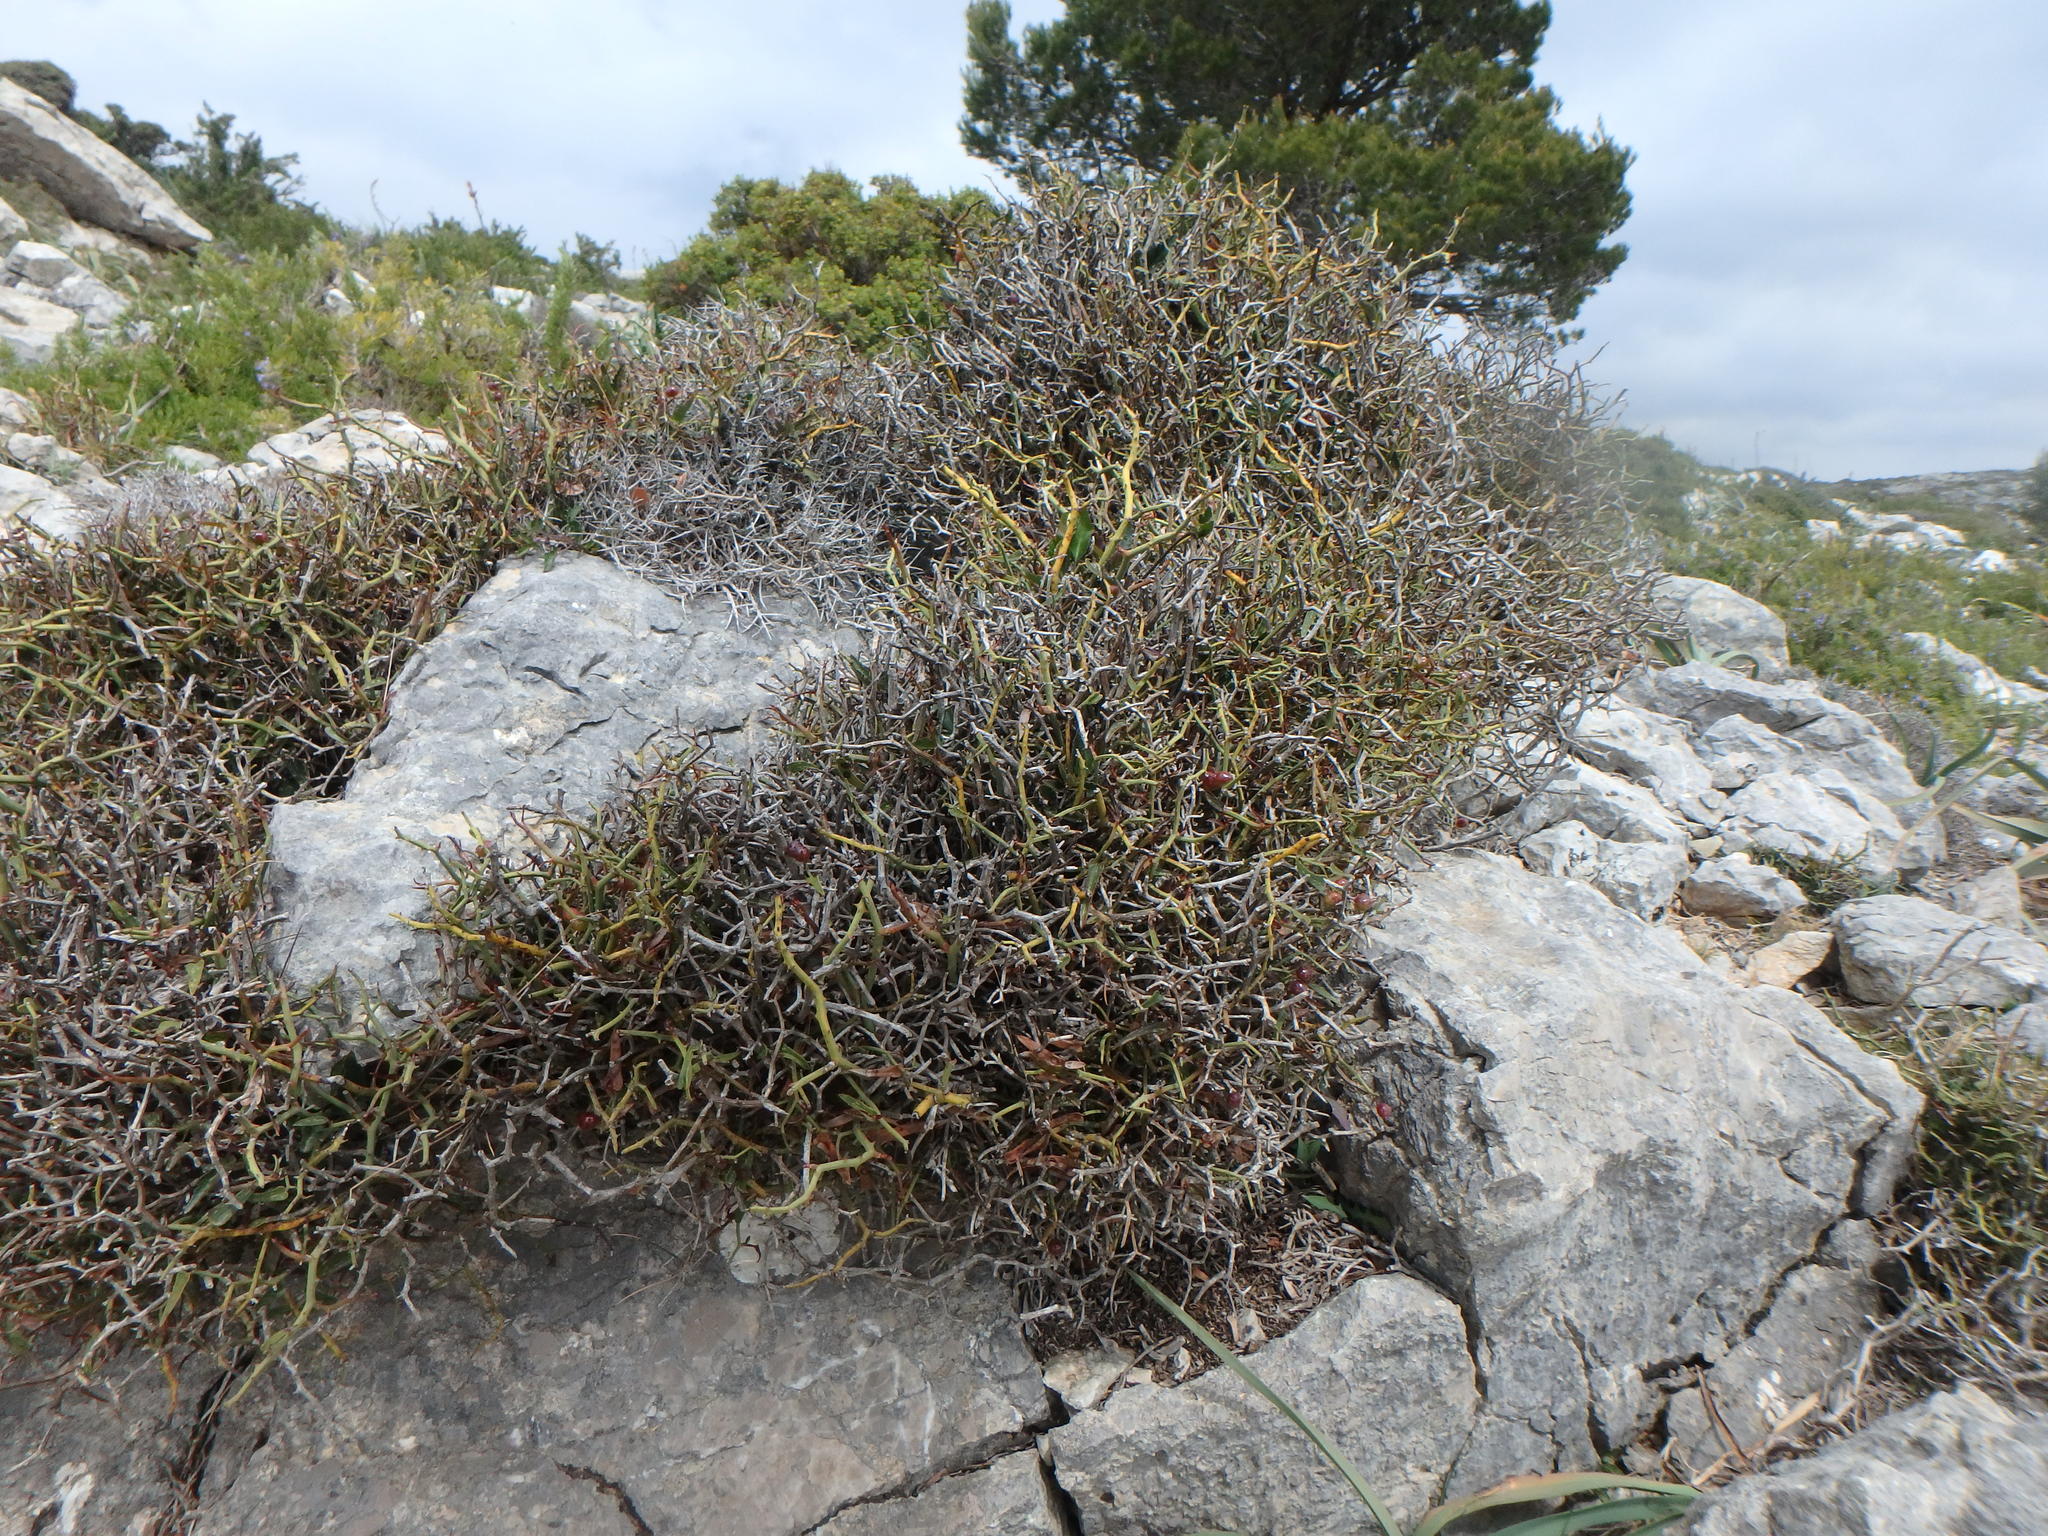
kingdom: Plantae
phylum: Tracheophyta
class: Liliopsida
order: Liliales
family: Smilacaceae
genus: Smilax
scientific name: Smilax aspera
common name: Common smilax
